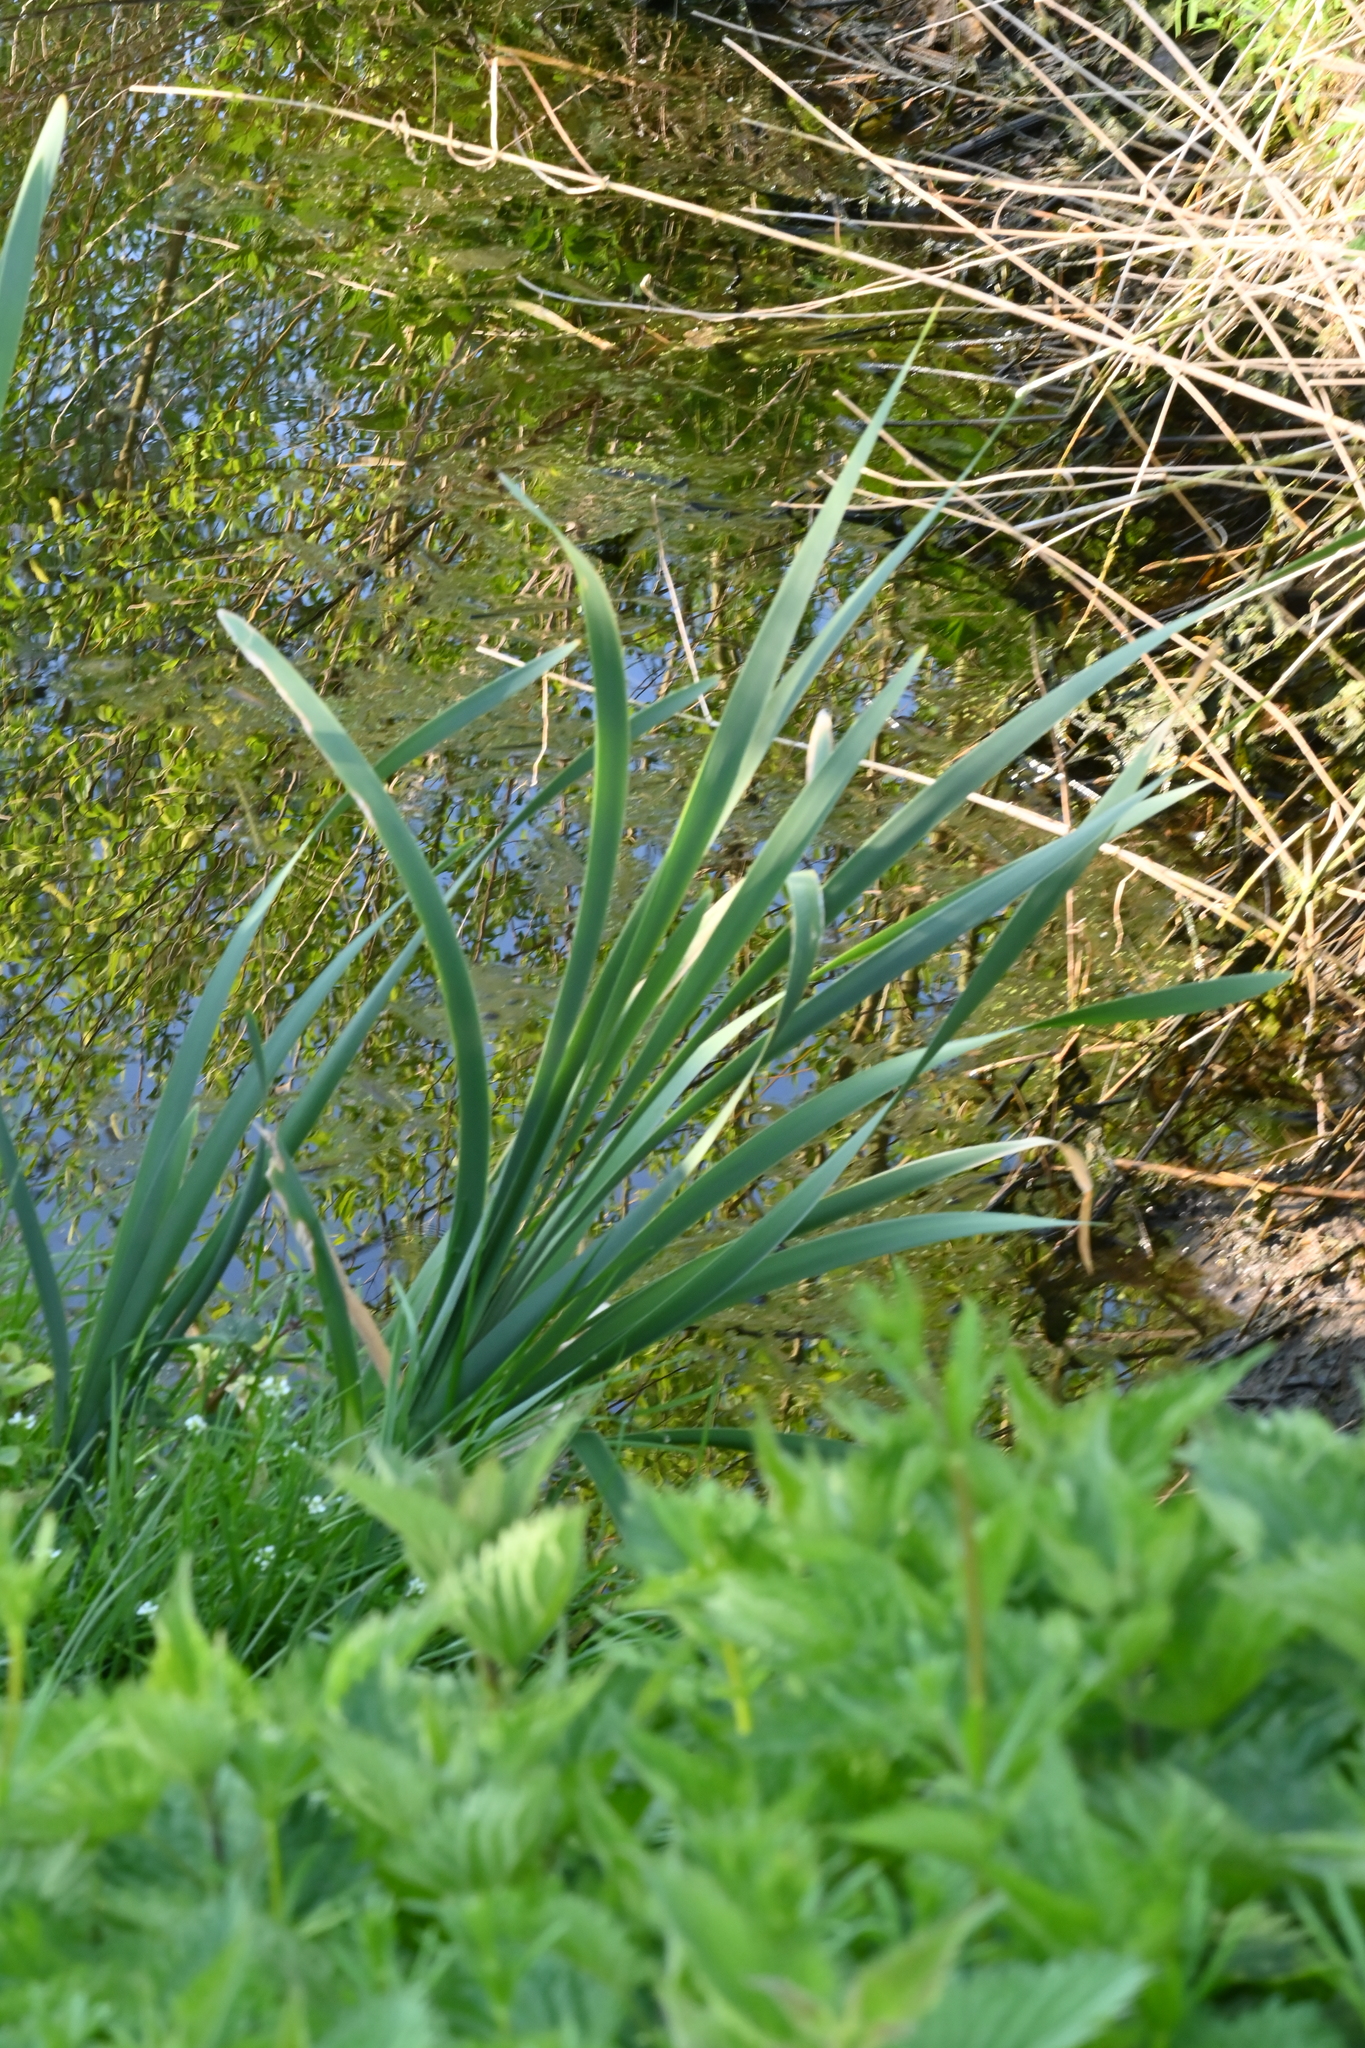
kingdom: Plantae
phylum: Tracheophyta
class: Liliopsida
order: Poales
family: Typhaceae
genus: Typha
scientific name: Typha latifolia
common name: Broadleaf cattail
